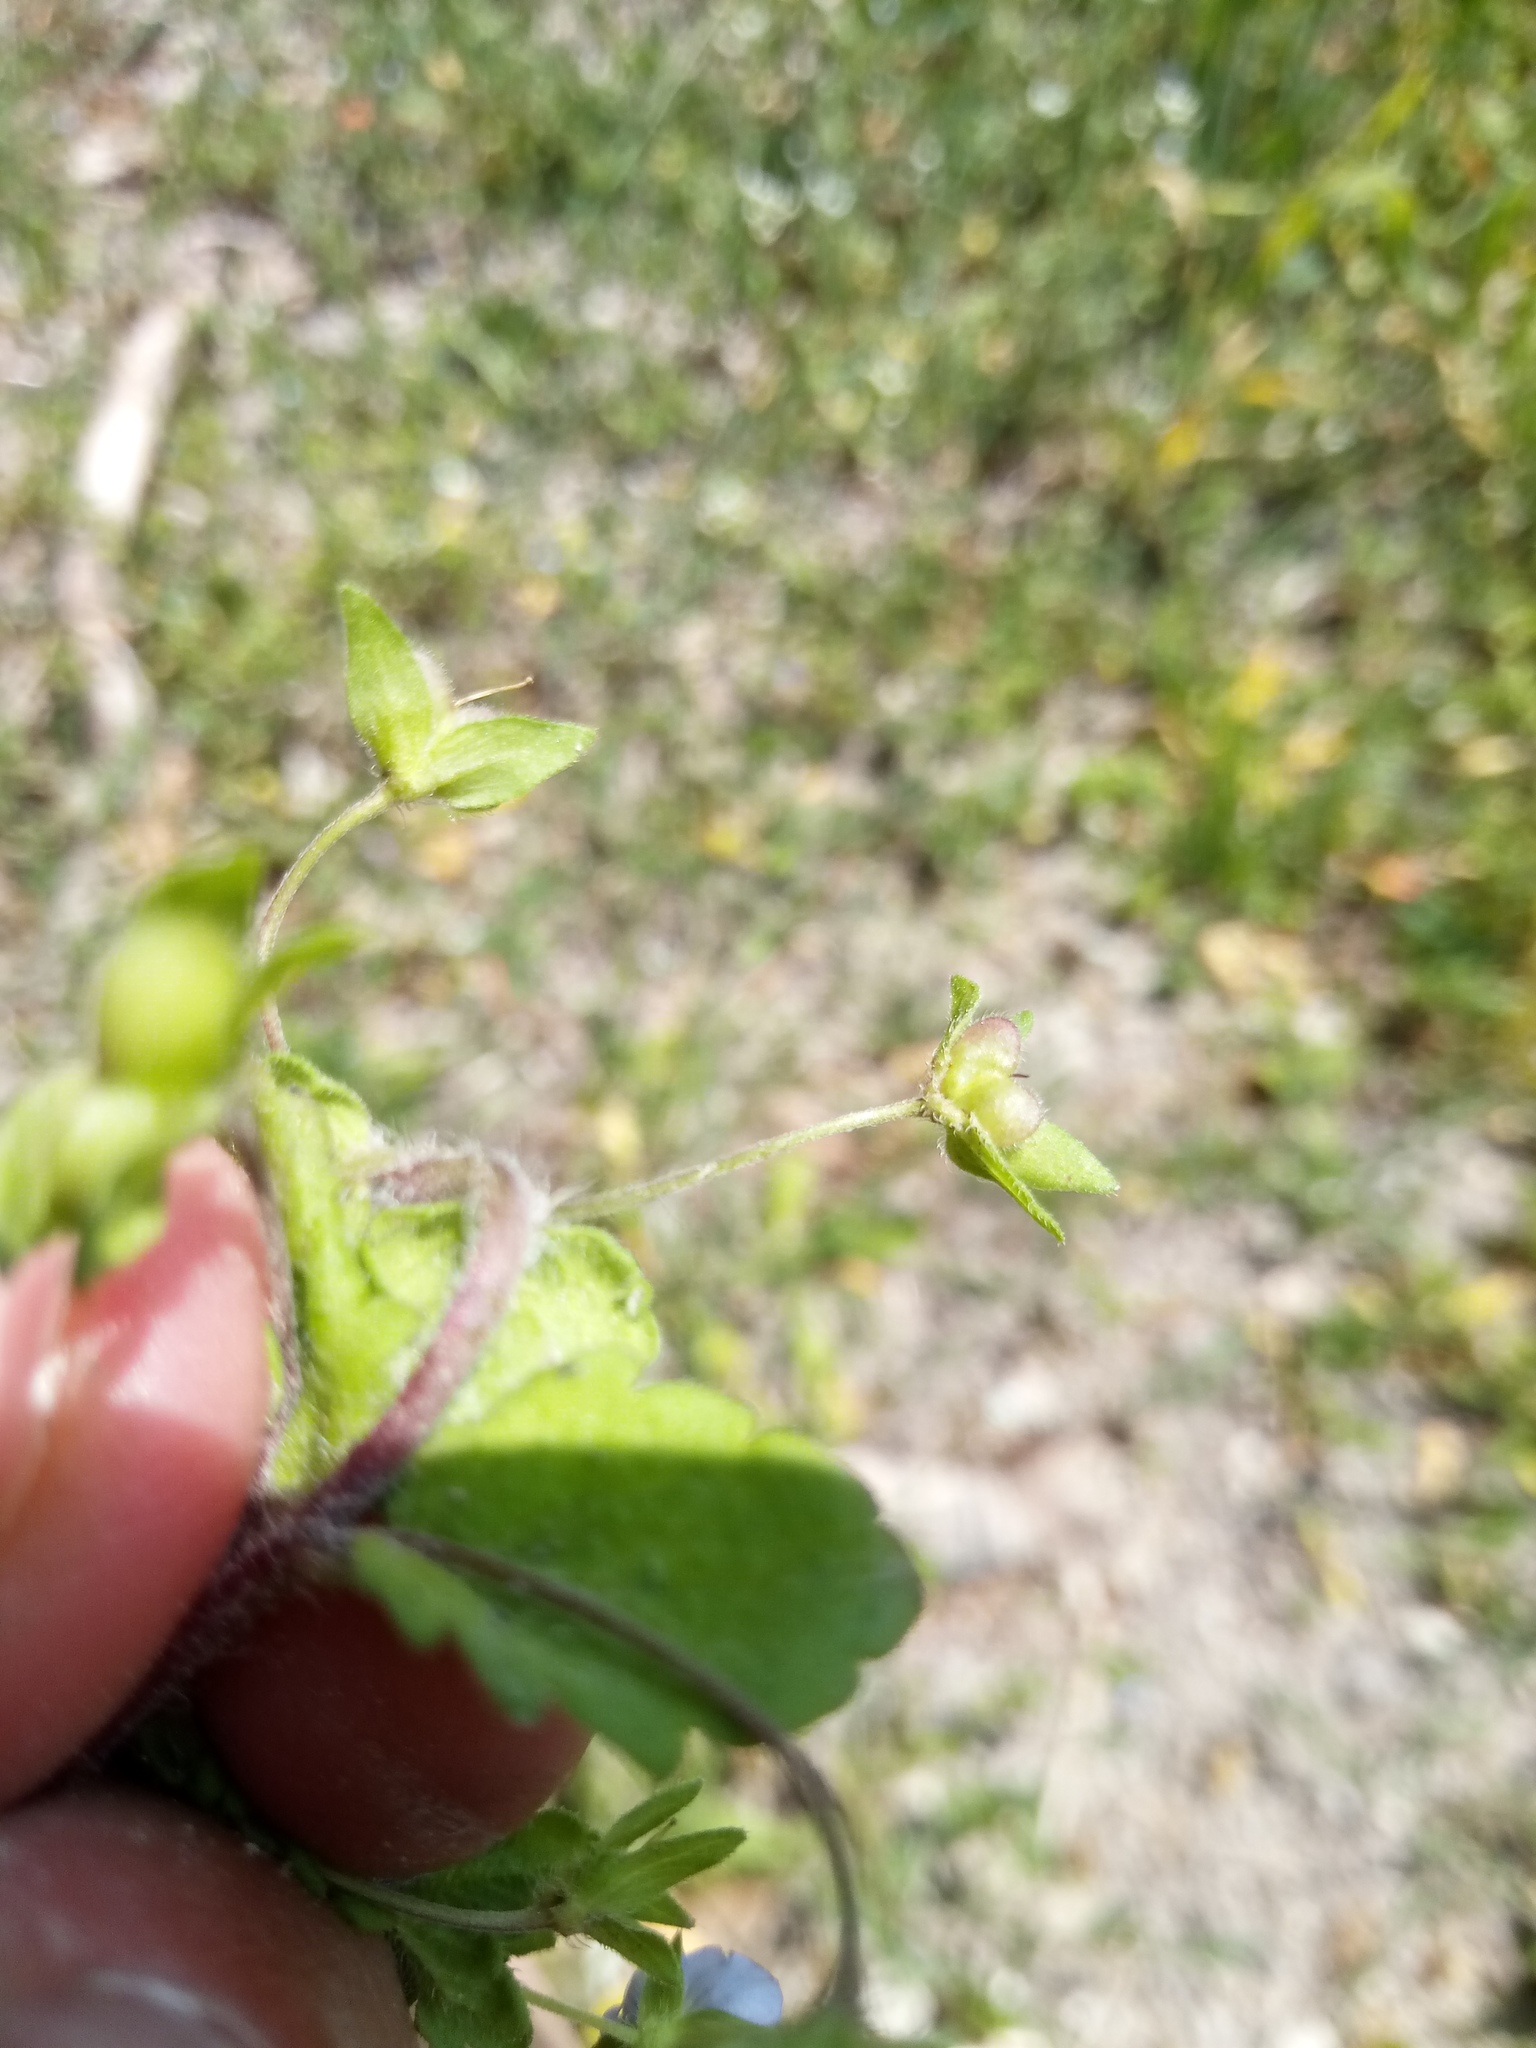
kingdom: Plantae
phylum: Tracheophyta
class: Magnoliopsida
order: Lamiales
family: Plantaginaceae
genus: Veronica
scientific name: Veronica persica
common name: Common field-speedwell
